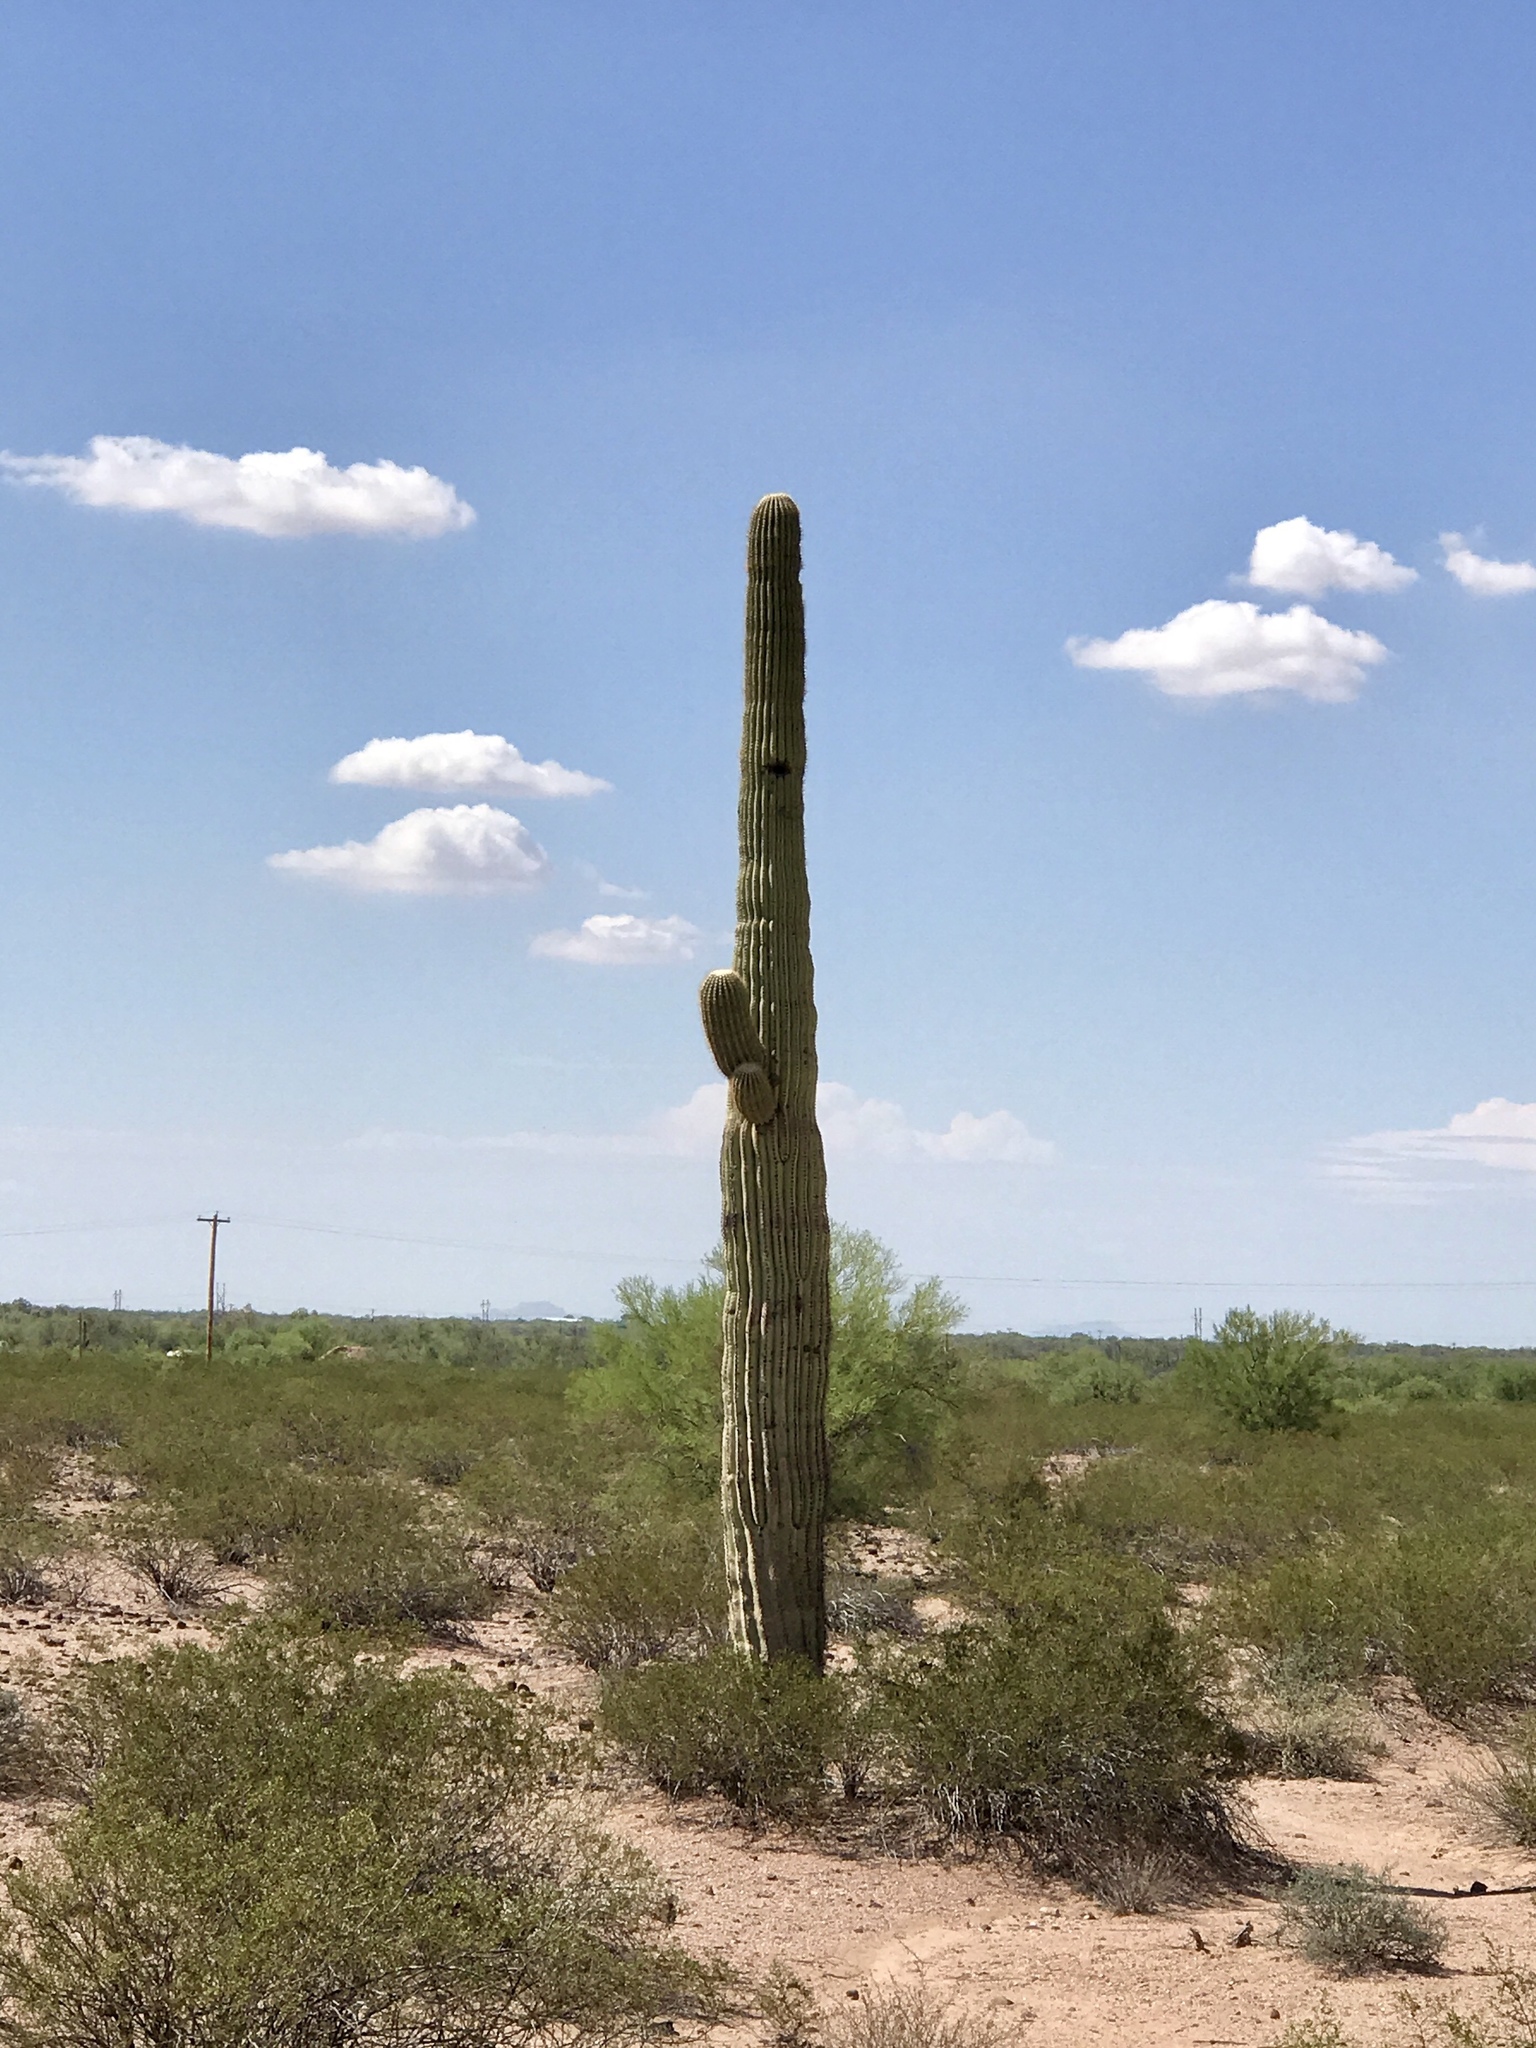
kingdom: Plantae
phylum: Tracheophyta
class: Magnoliopsida
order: Caryophyllales
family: Cactaceae
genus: Carnegiea
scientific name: Carnegiea gigantea
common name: Saguaro
